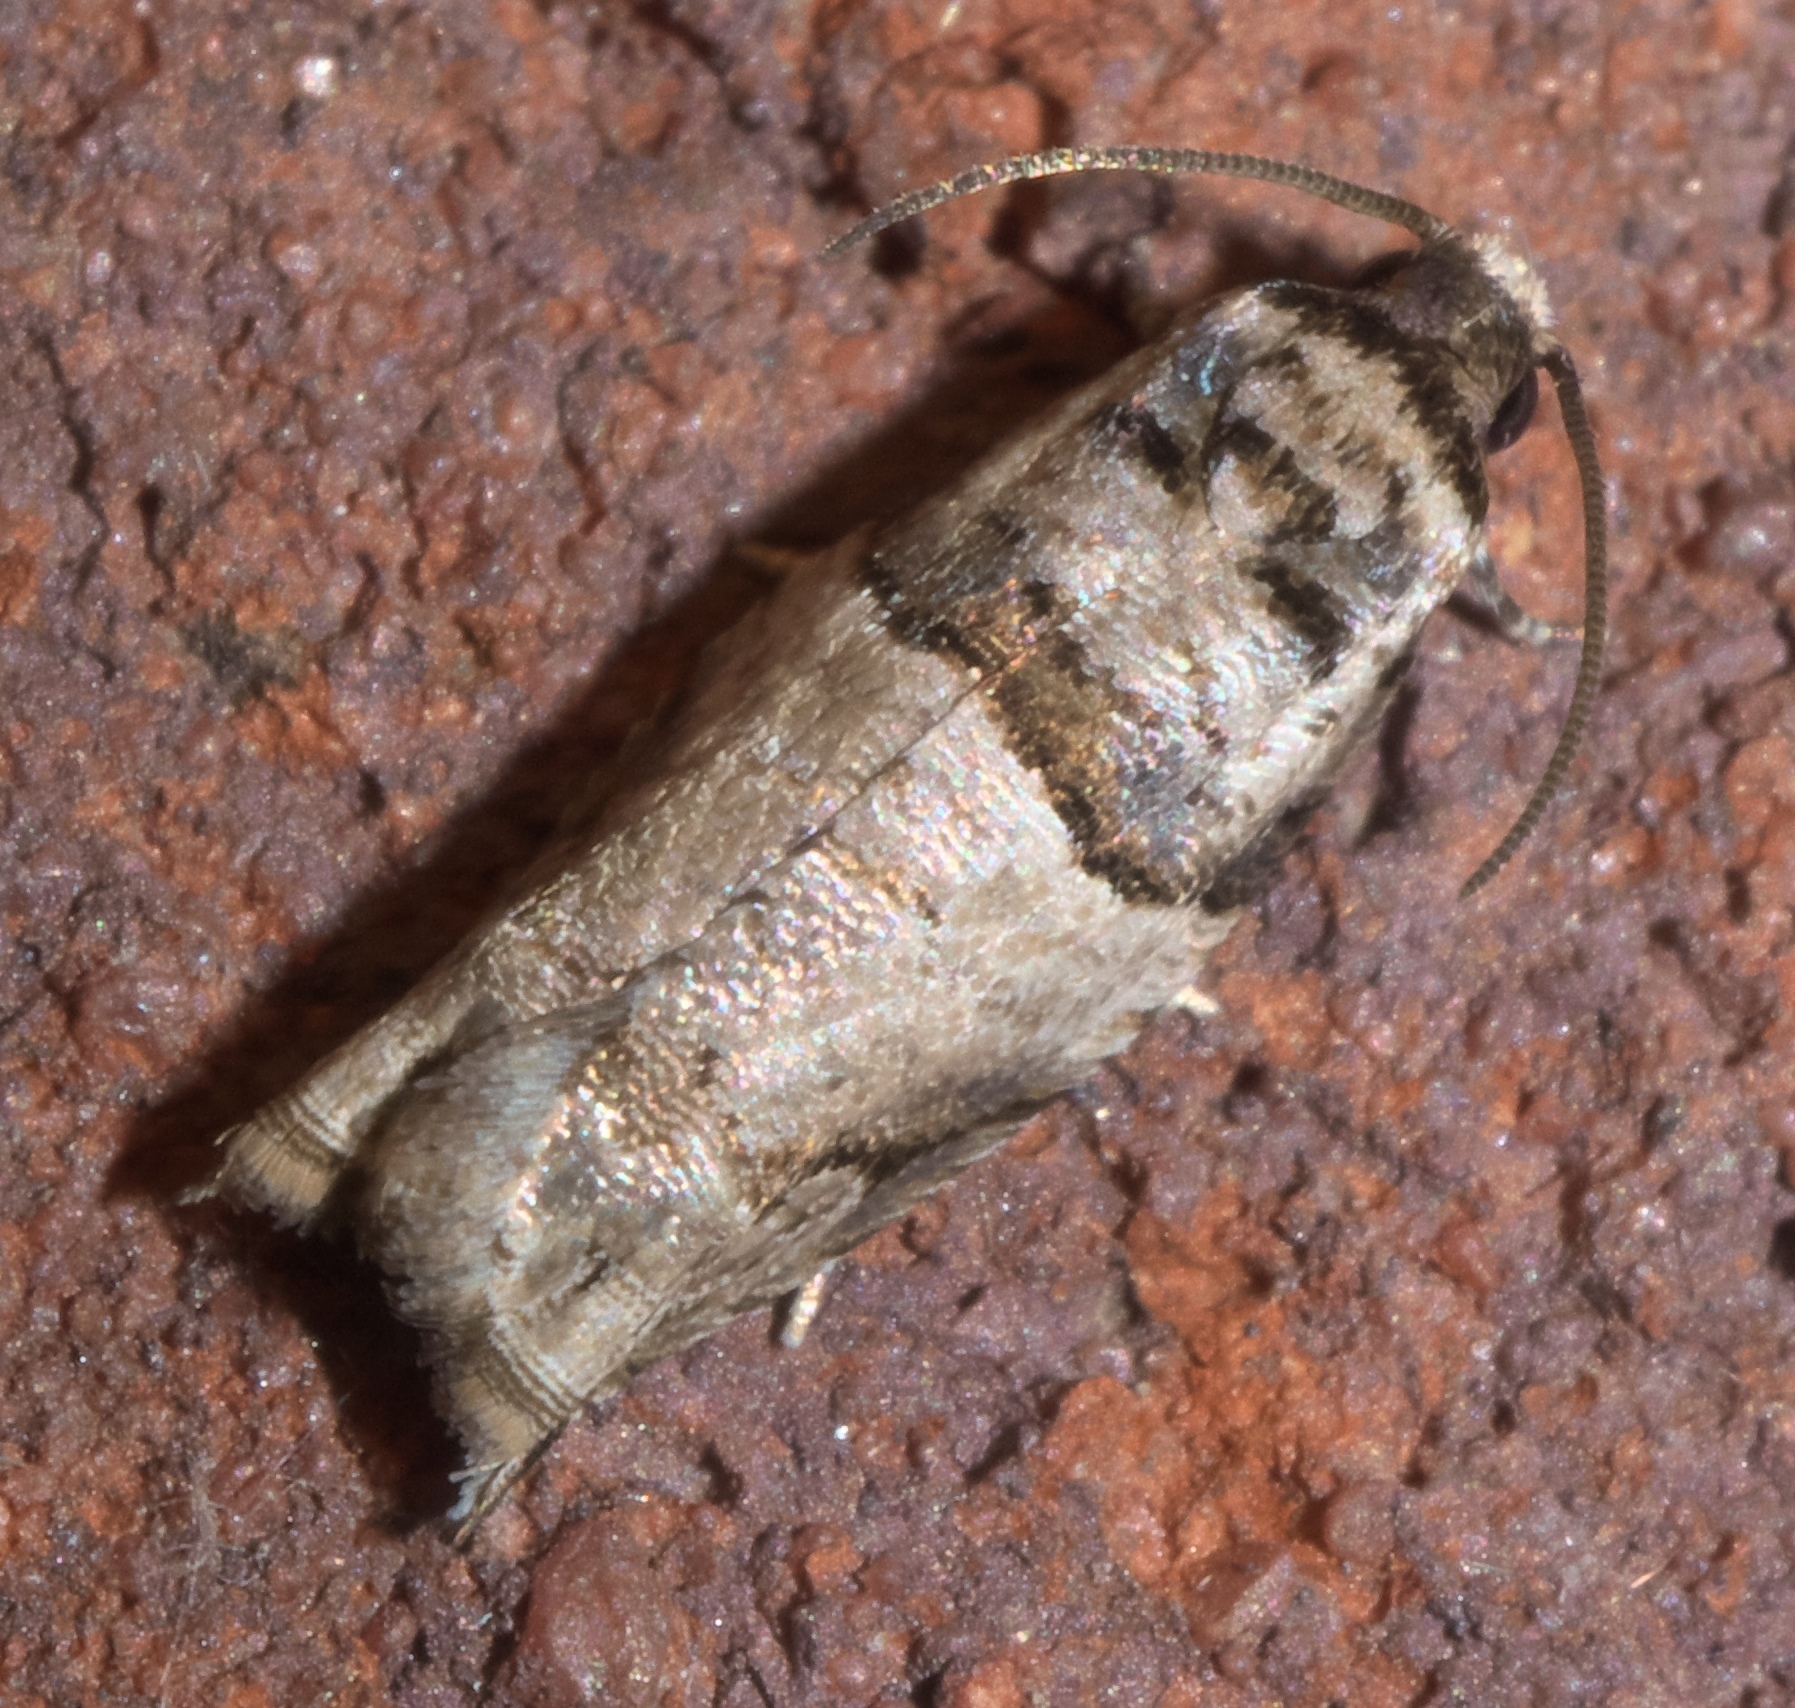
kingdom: Animalia
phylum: Arthropoda
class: Insecta
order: Lepidoptera
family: Tortricidae
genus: Rhopobota
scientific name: Rhopobota dietziana
